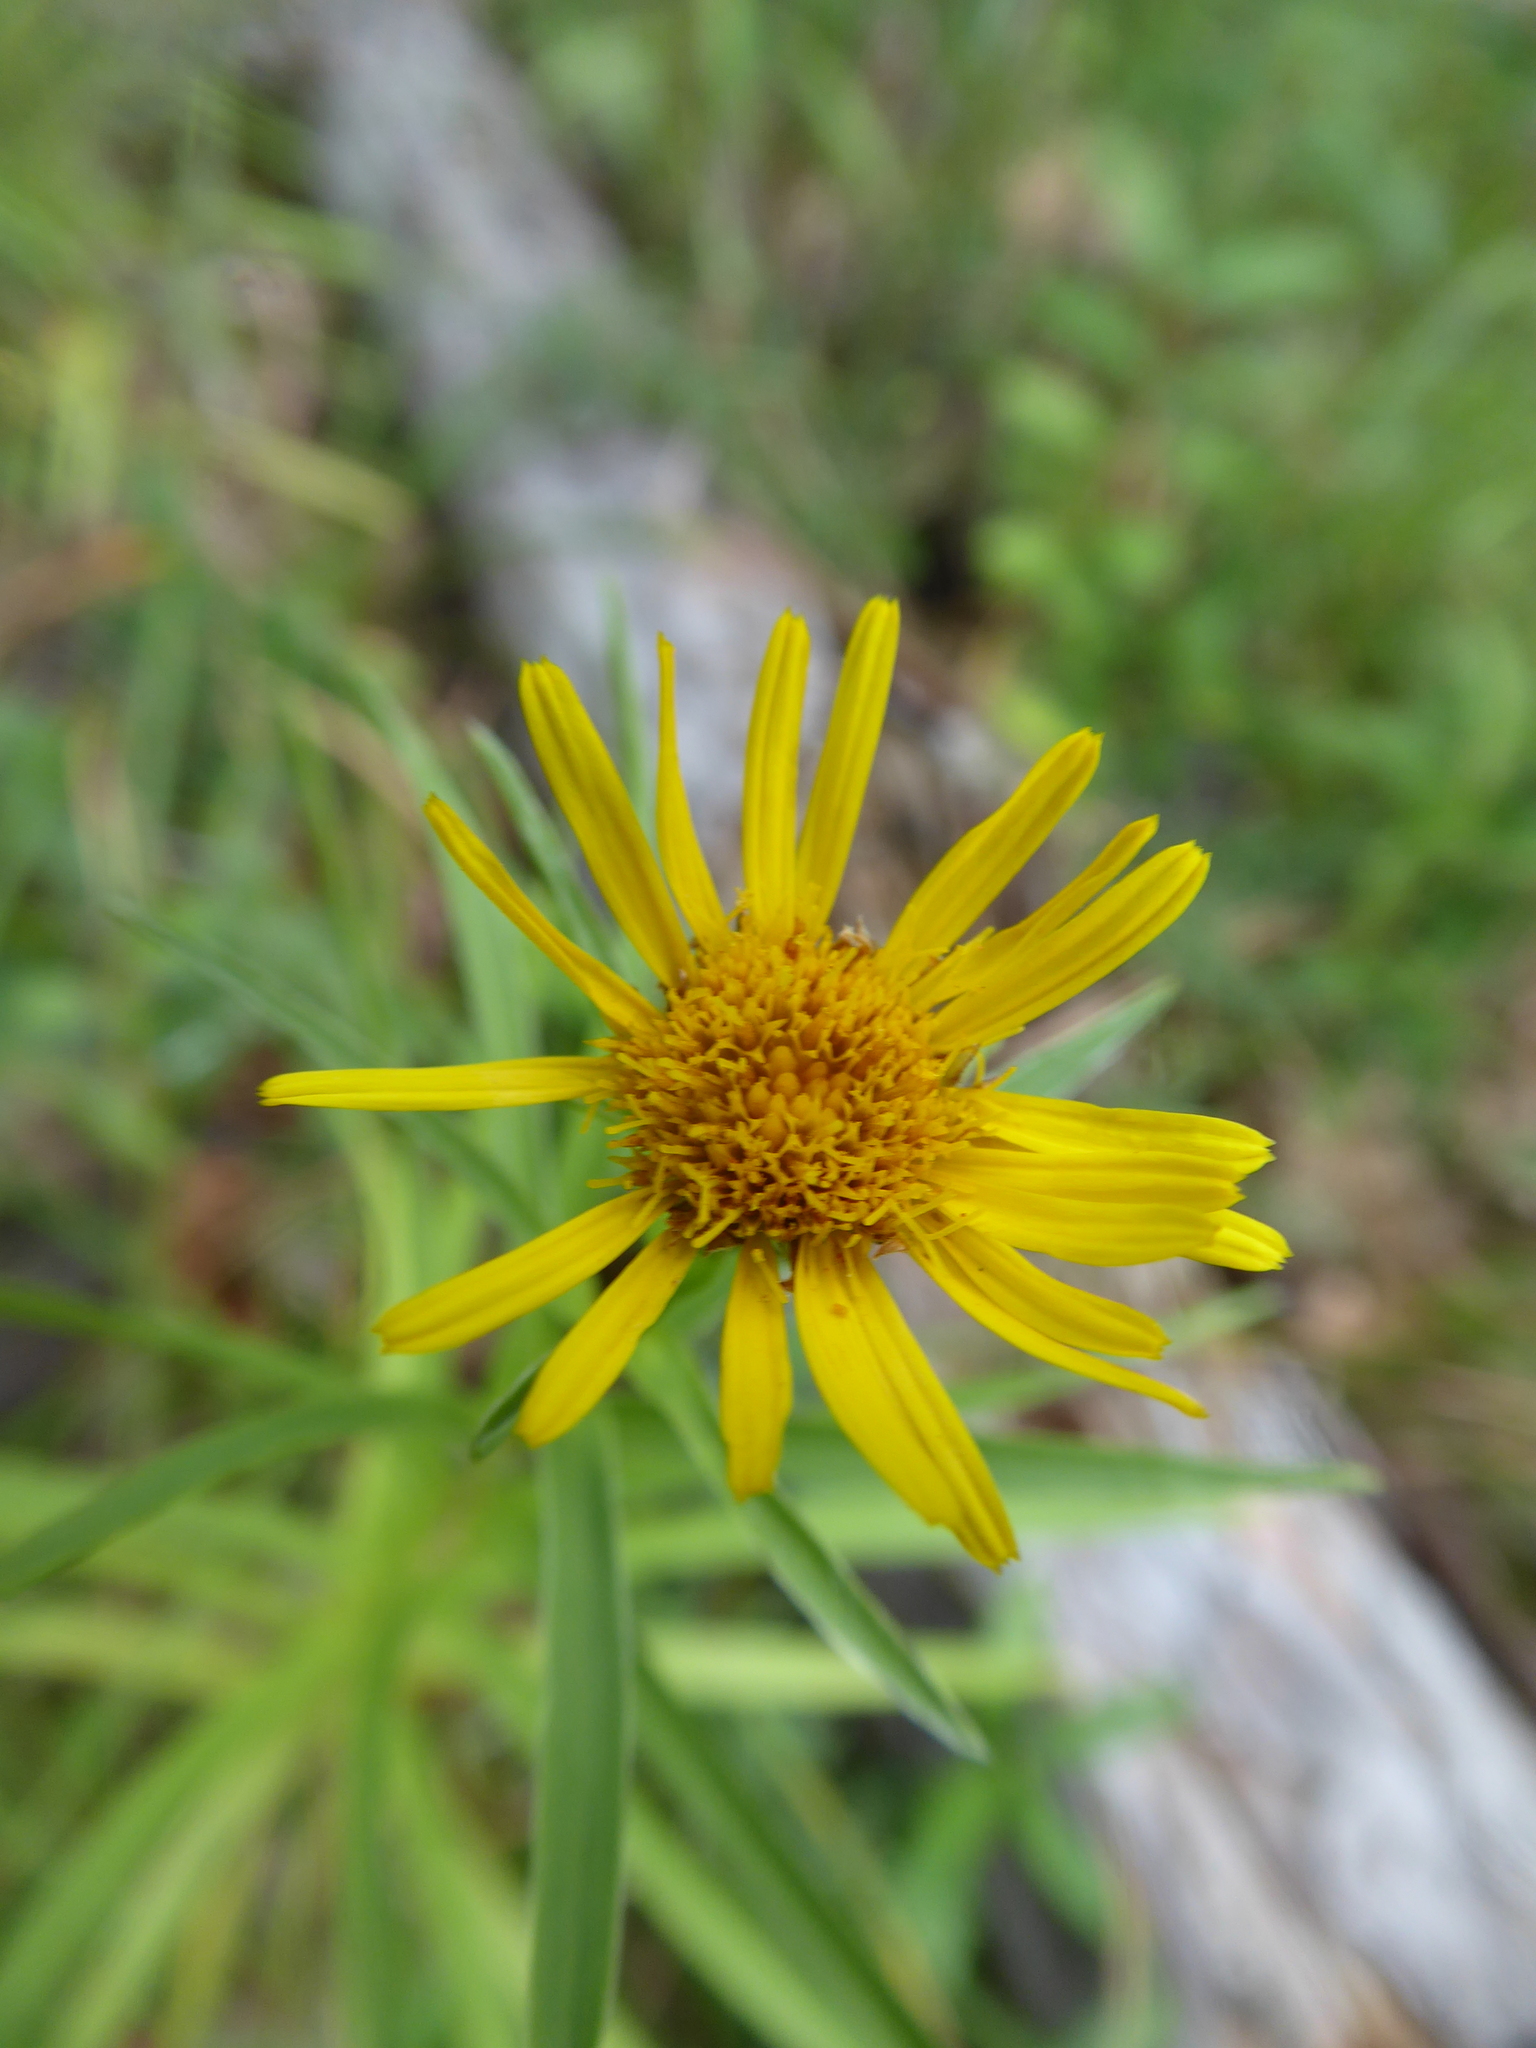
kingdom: Plantae
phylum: Tracheophyta
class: Magnoliopsida
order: Asterales
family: Asteraceae
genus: Pentanema
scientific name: Pentanema ensifolium
